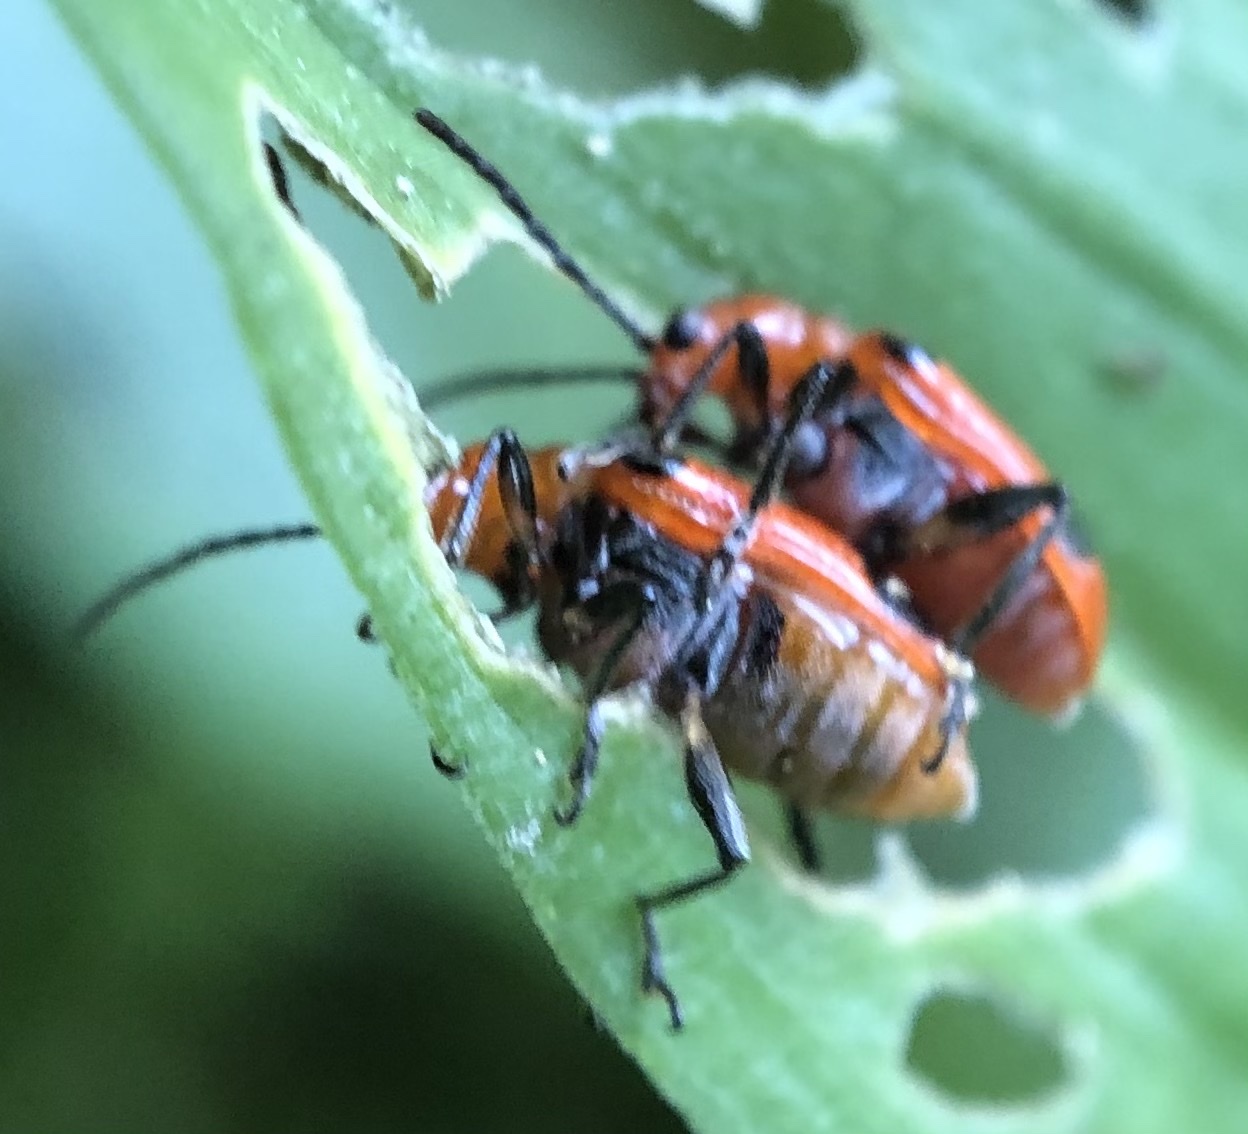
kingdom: Animalia
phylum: Arthropoda
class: Insecta
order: Coleoptera
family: Chrysomelidae
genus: Neolema
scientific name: Neolema sexpunctata
